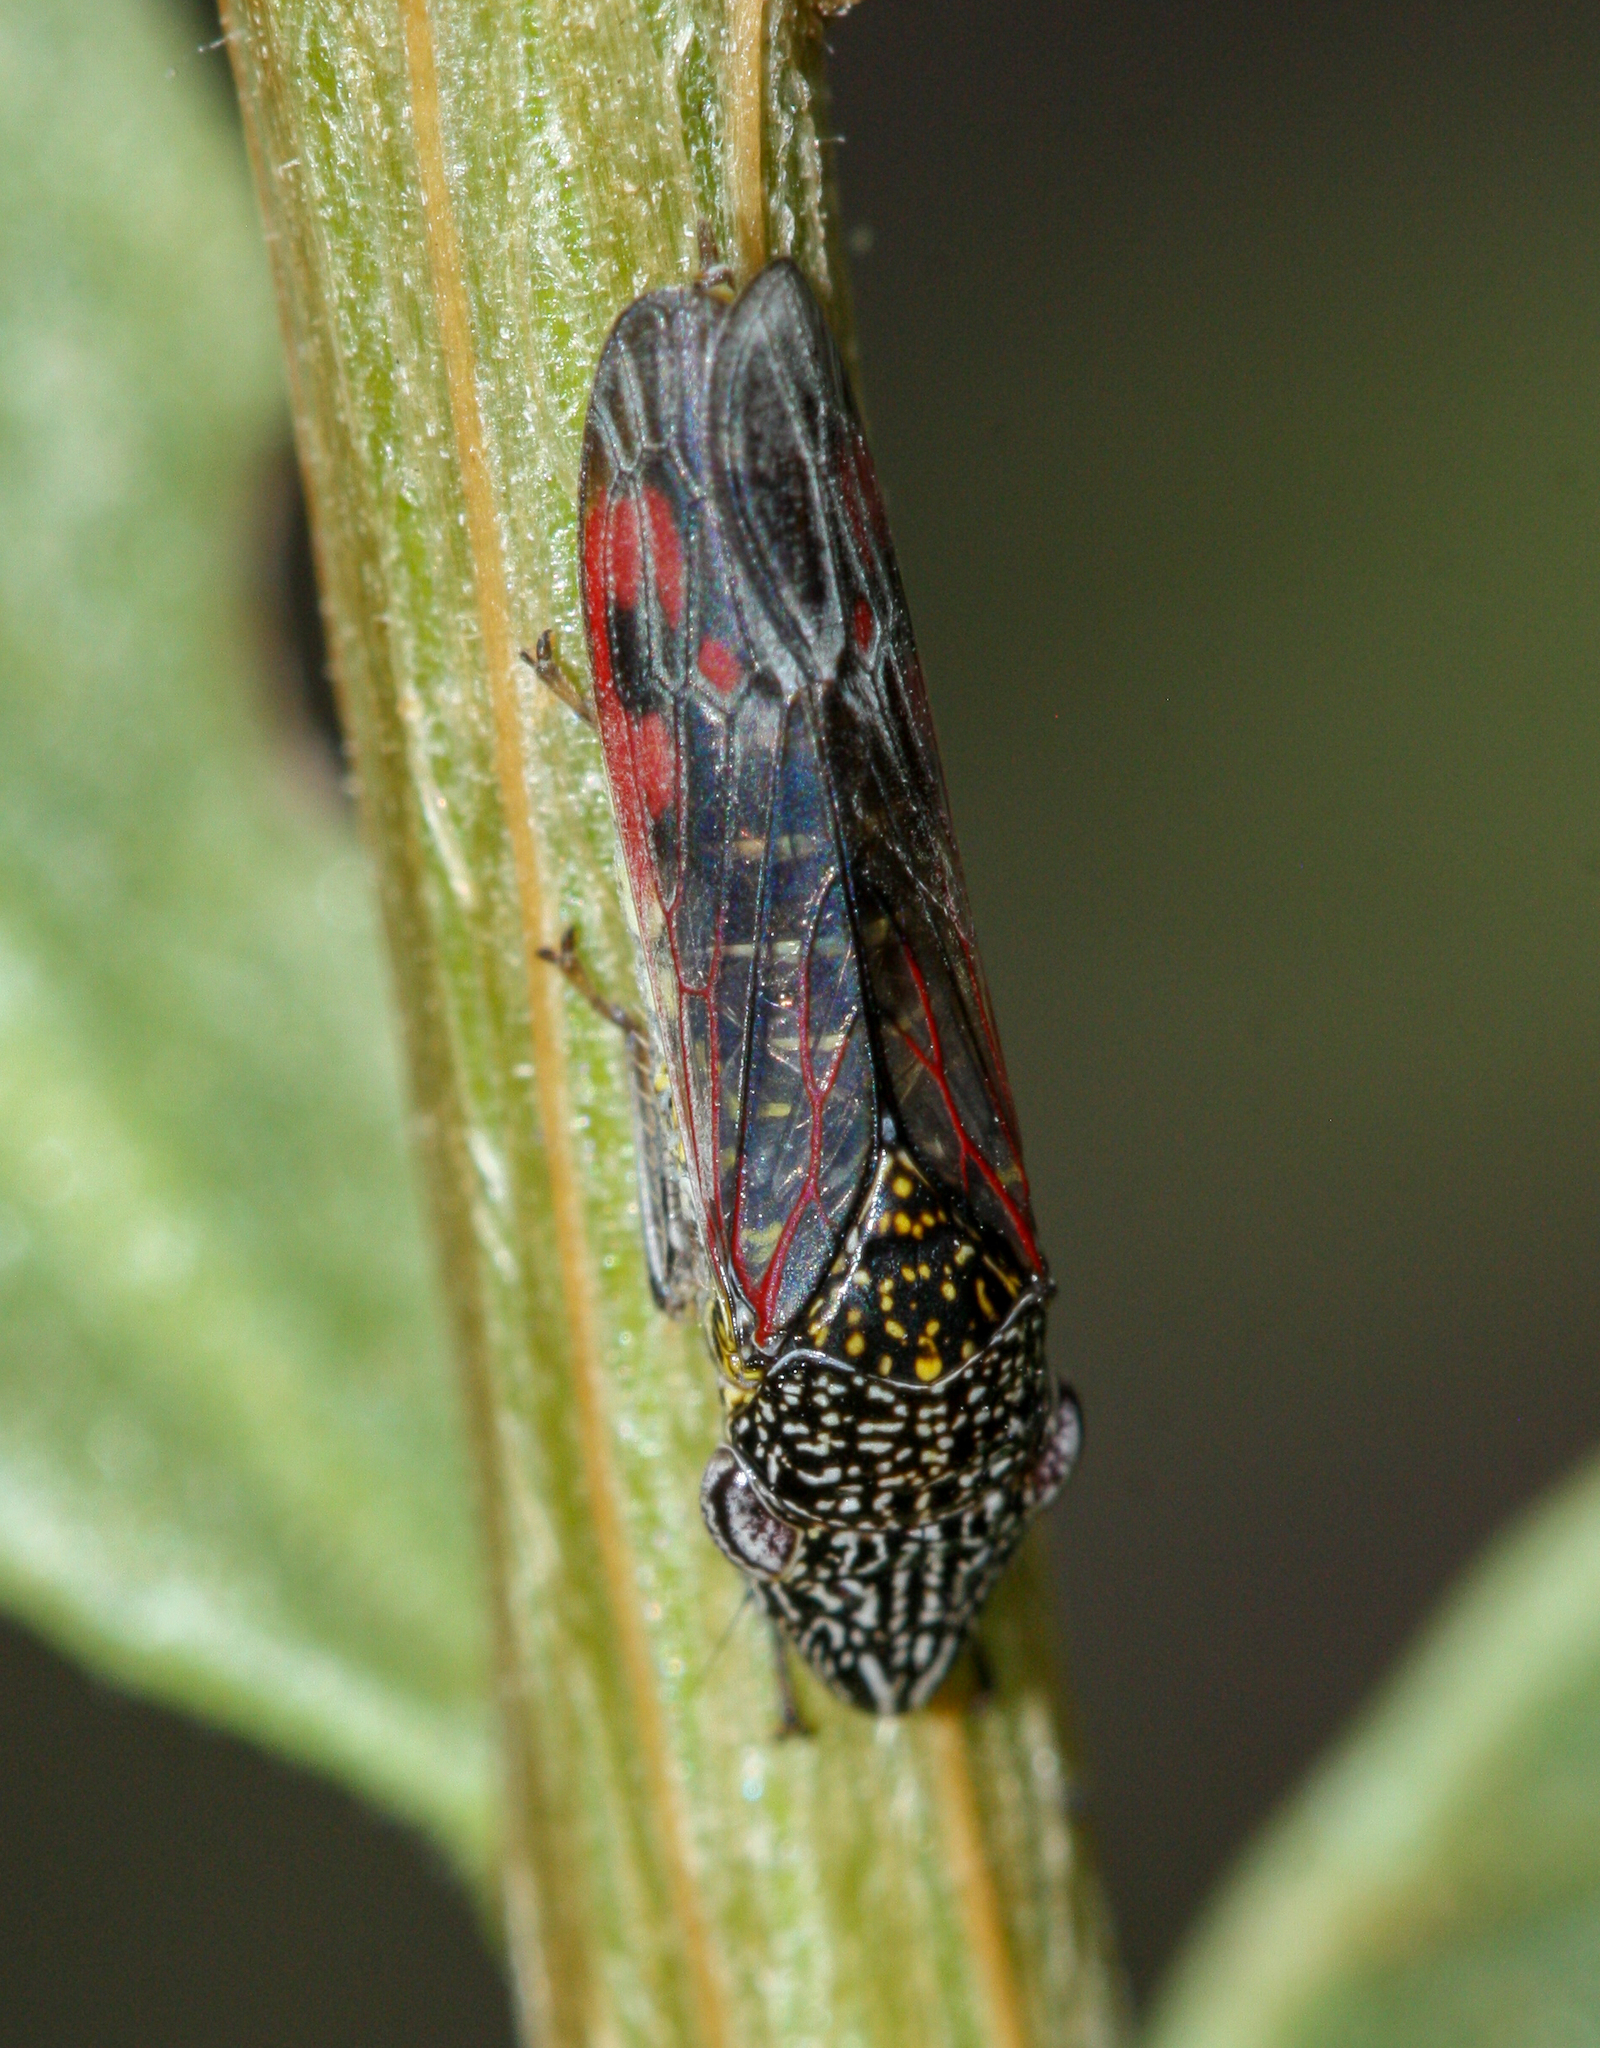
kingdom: Animalia
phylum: Arthropoda
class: Insecta
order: Hemiptera
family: Cicadellidae
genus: Homalodisca
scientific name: Homalodisca liturata
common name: Lacertate sharpshooter
